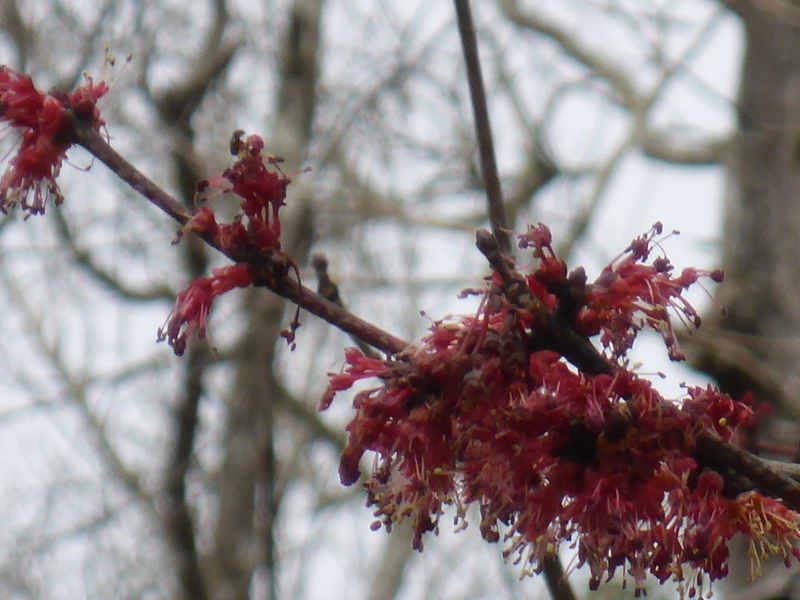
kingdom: Plantae
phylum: Tracheophyta
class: Magnoliopsida
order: Sapindales
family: Sapindaceae
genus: Acer
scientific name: Acer rubrum
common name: Red maple
